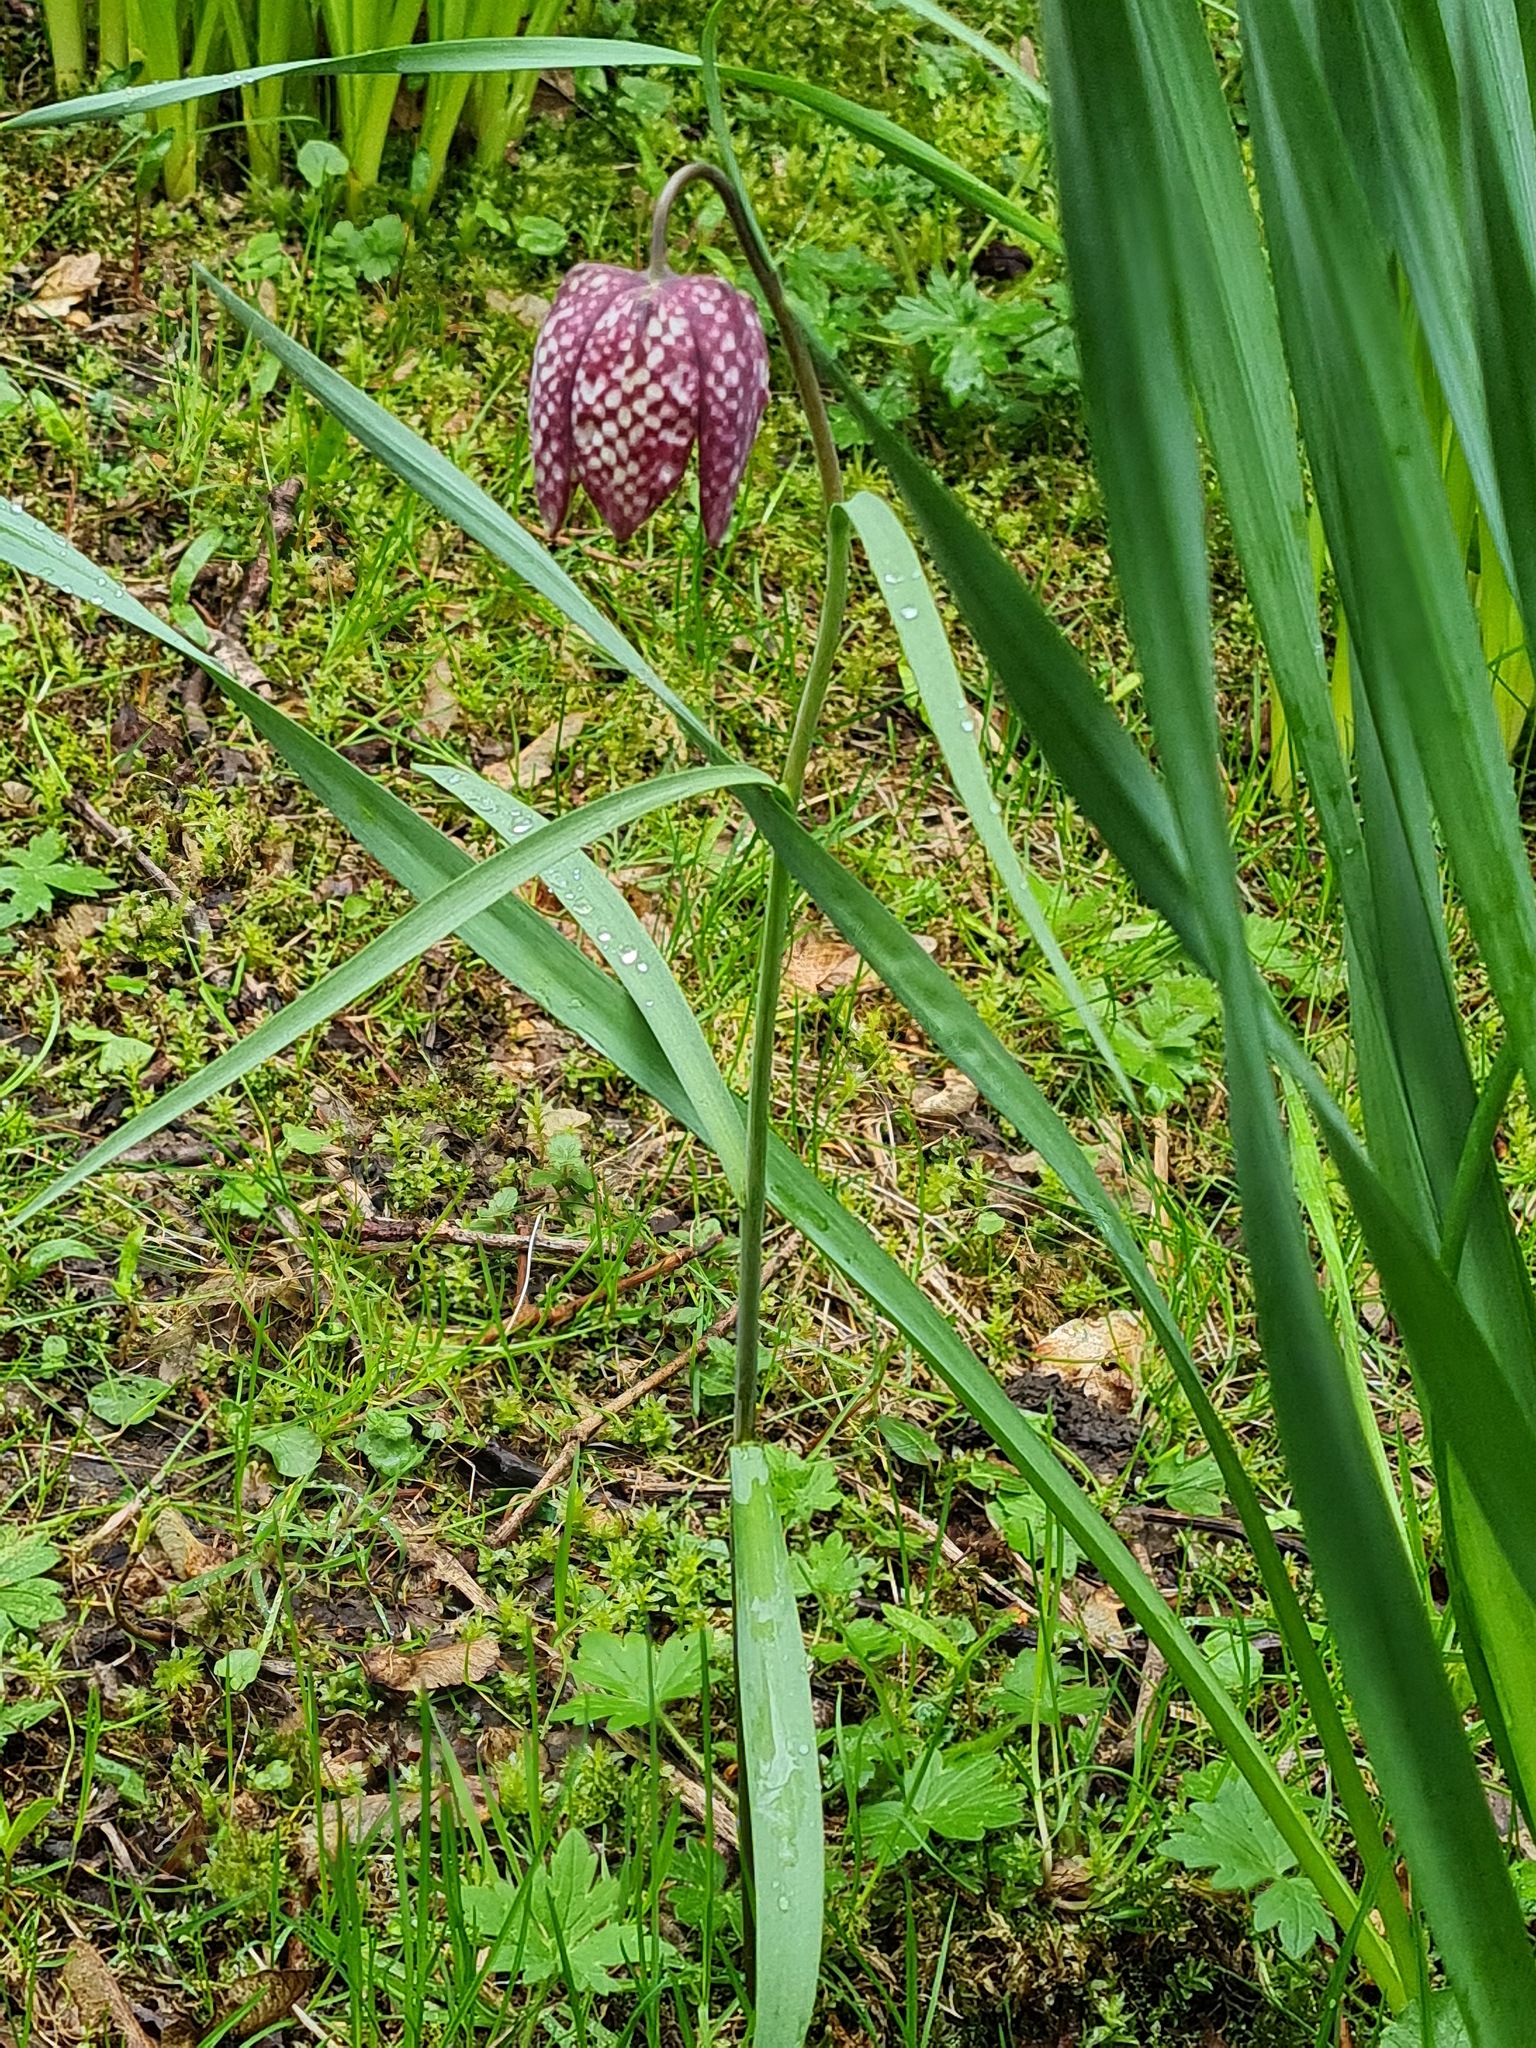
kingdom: Plantae
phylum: Tracheophyta
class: Liliopsida
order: Liliales
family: Liliaceae
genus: Fritillaria
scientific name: Fritillaria meleagris
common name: Fritillary
